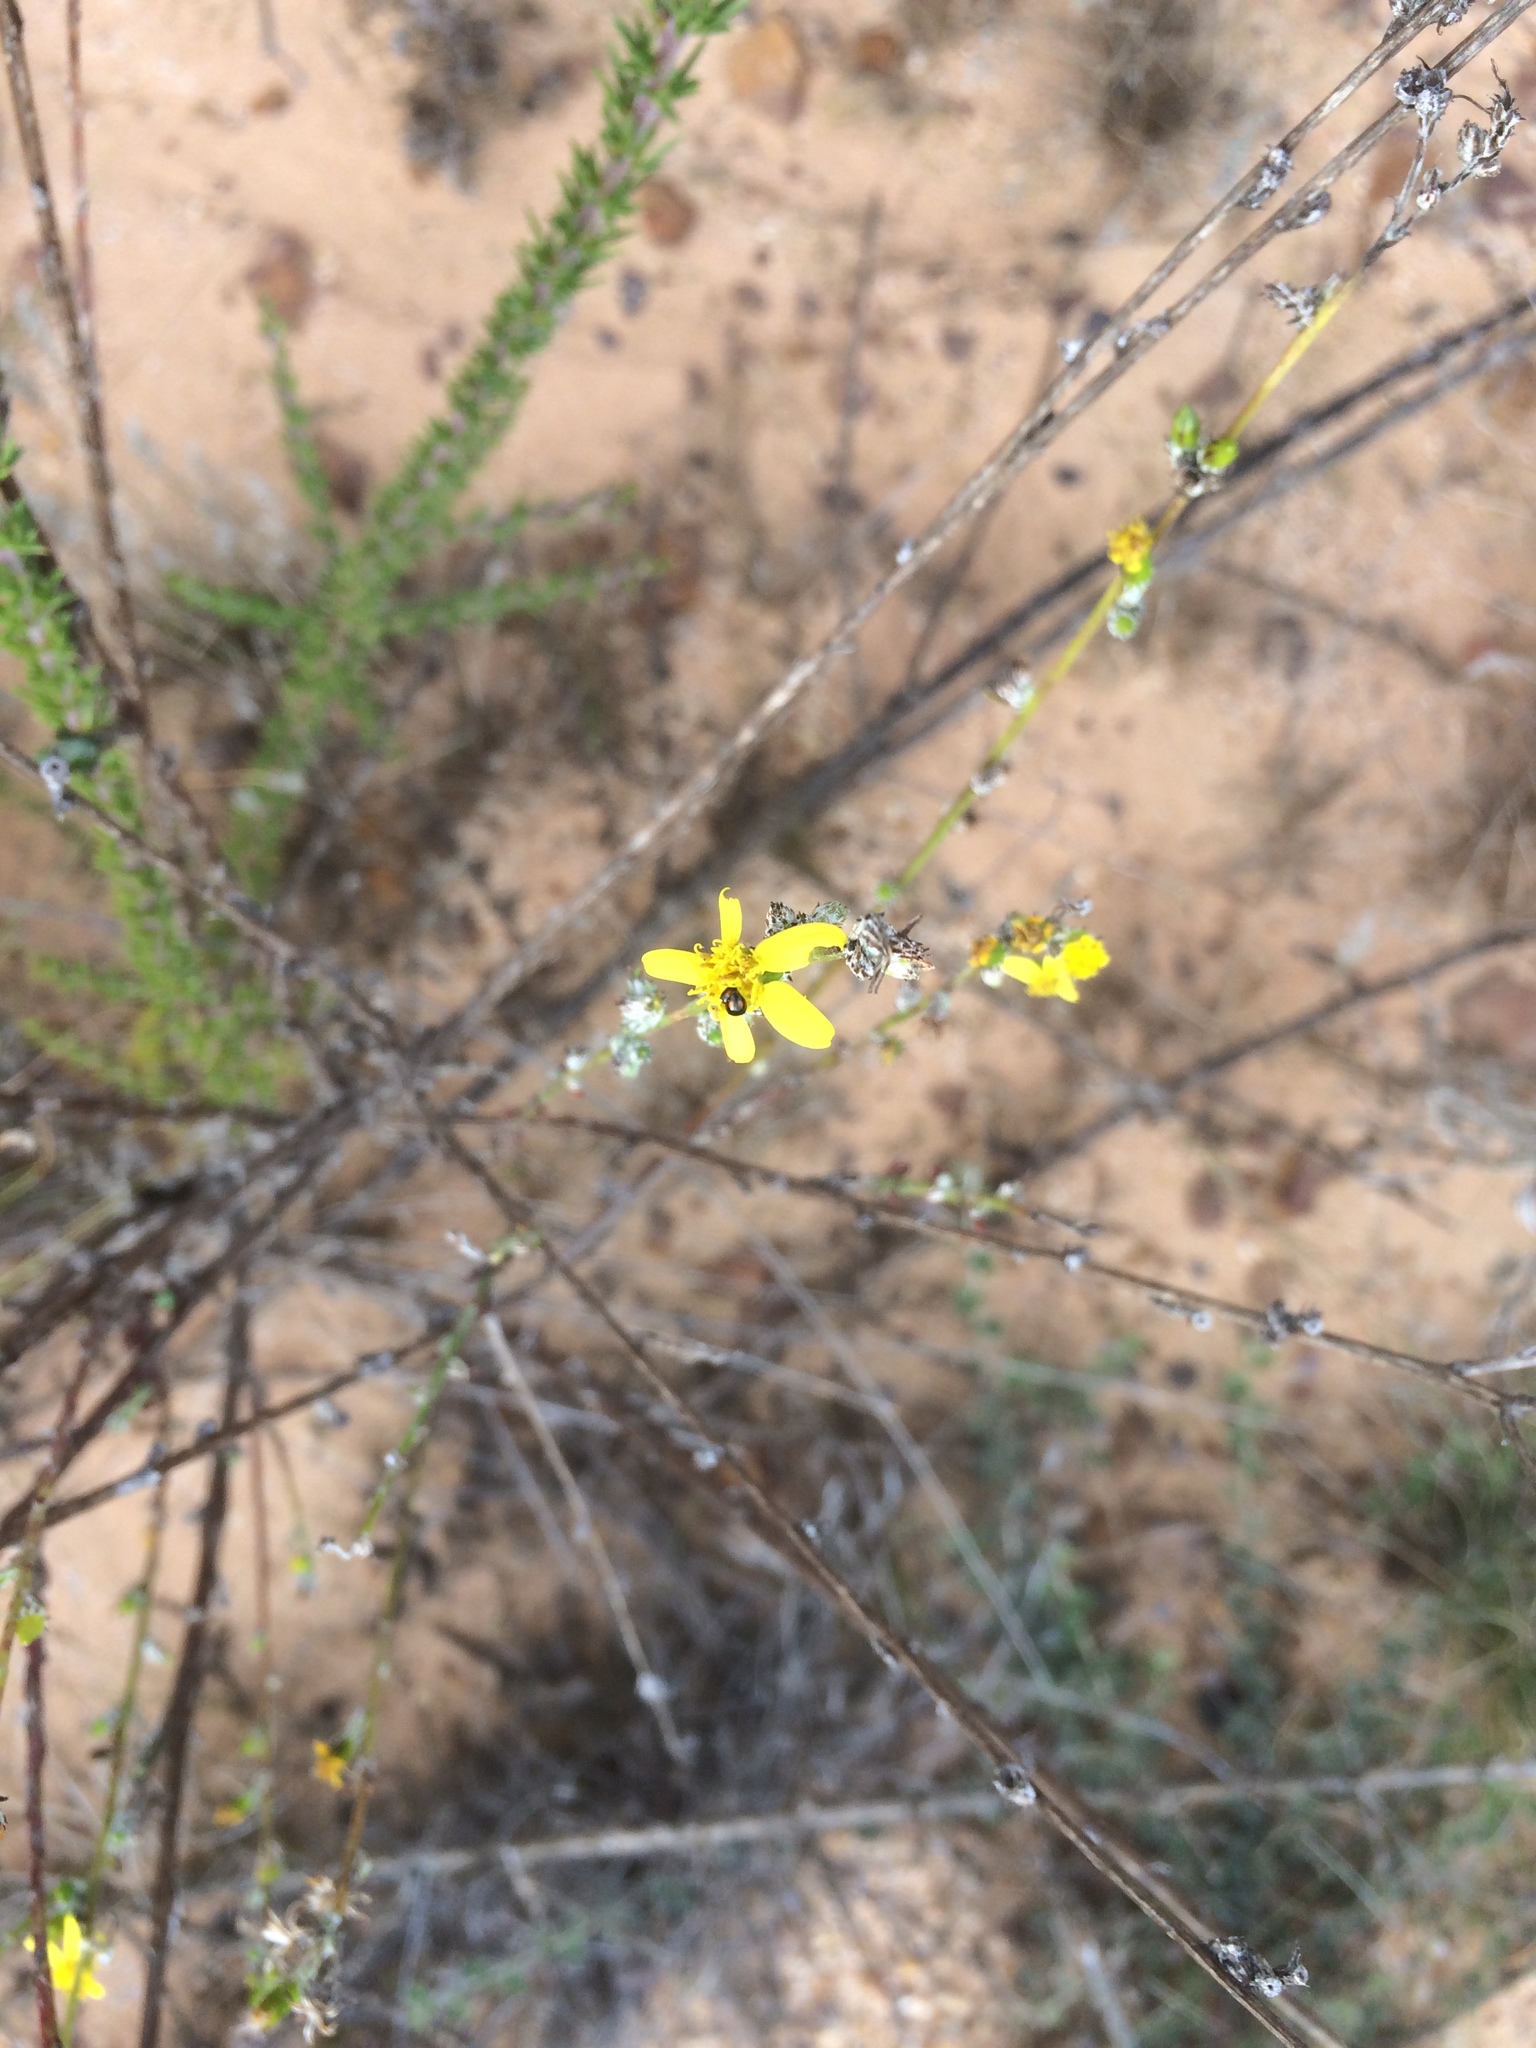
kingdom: Plantae
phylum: Tracheophyta
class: Magnoliopsida
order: Asterales
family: Asteraceae
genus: Senecio
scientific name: Senecio pubigerus
